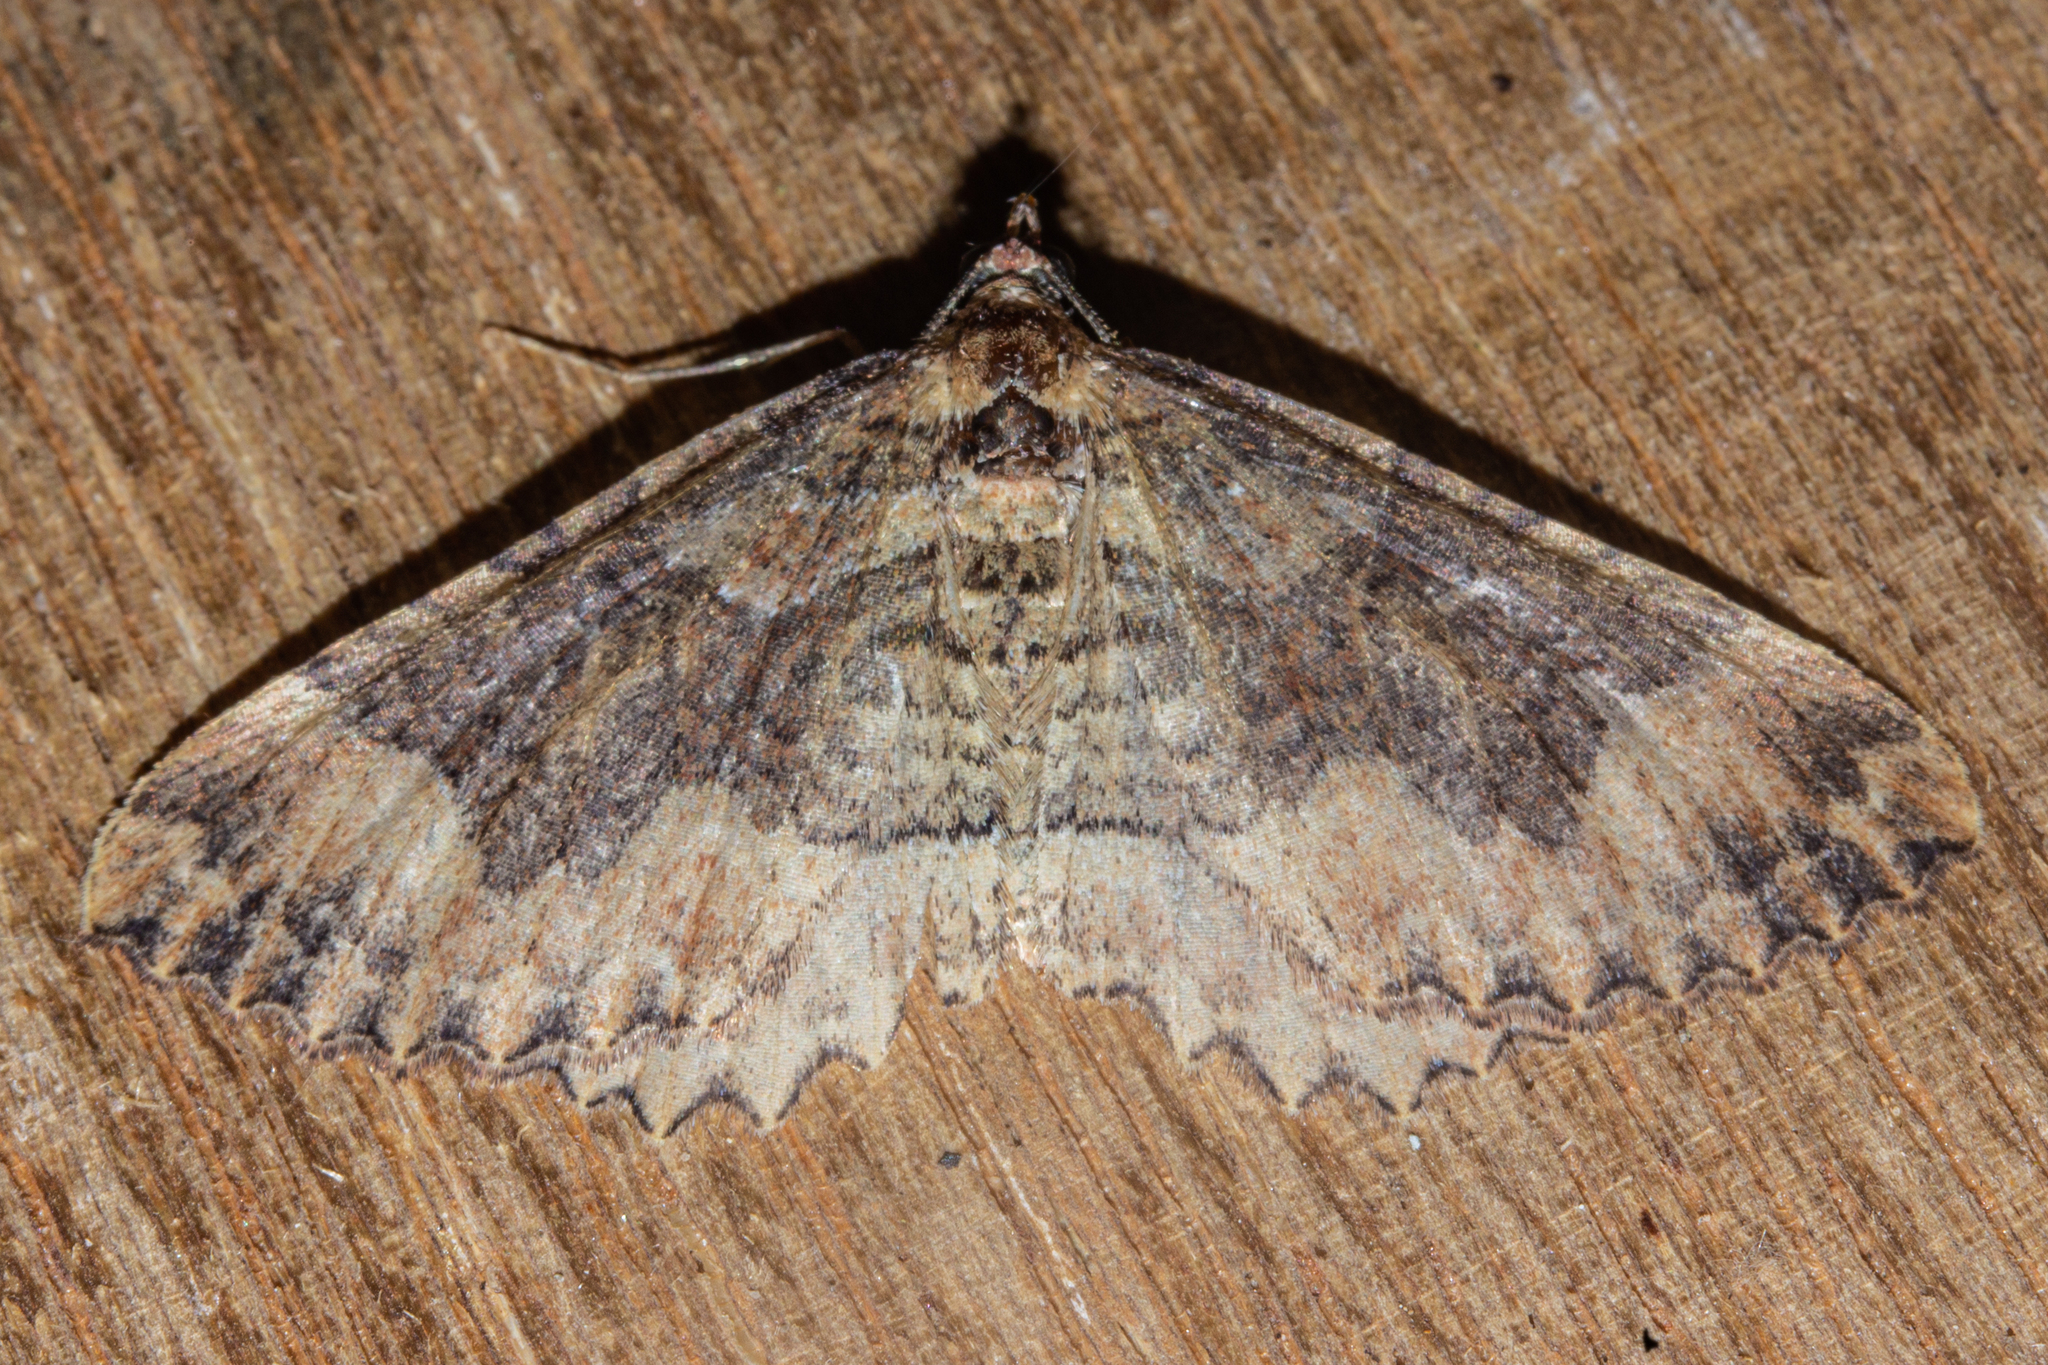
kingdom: Animalia
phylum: Arthropoda
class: Insecta
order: Lepidoptera
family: Geometridae
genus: Austrocidaria
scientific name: Austrocidaria cedrinodes
